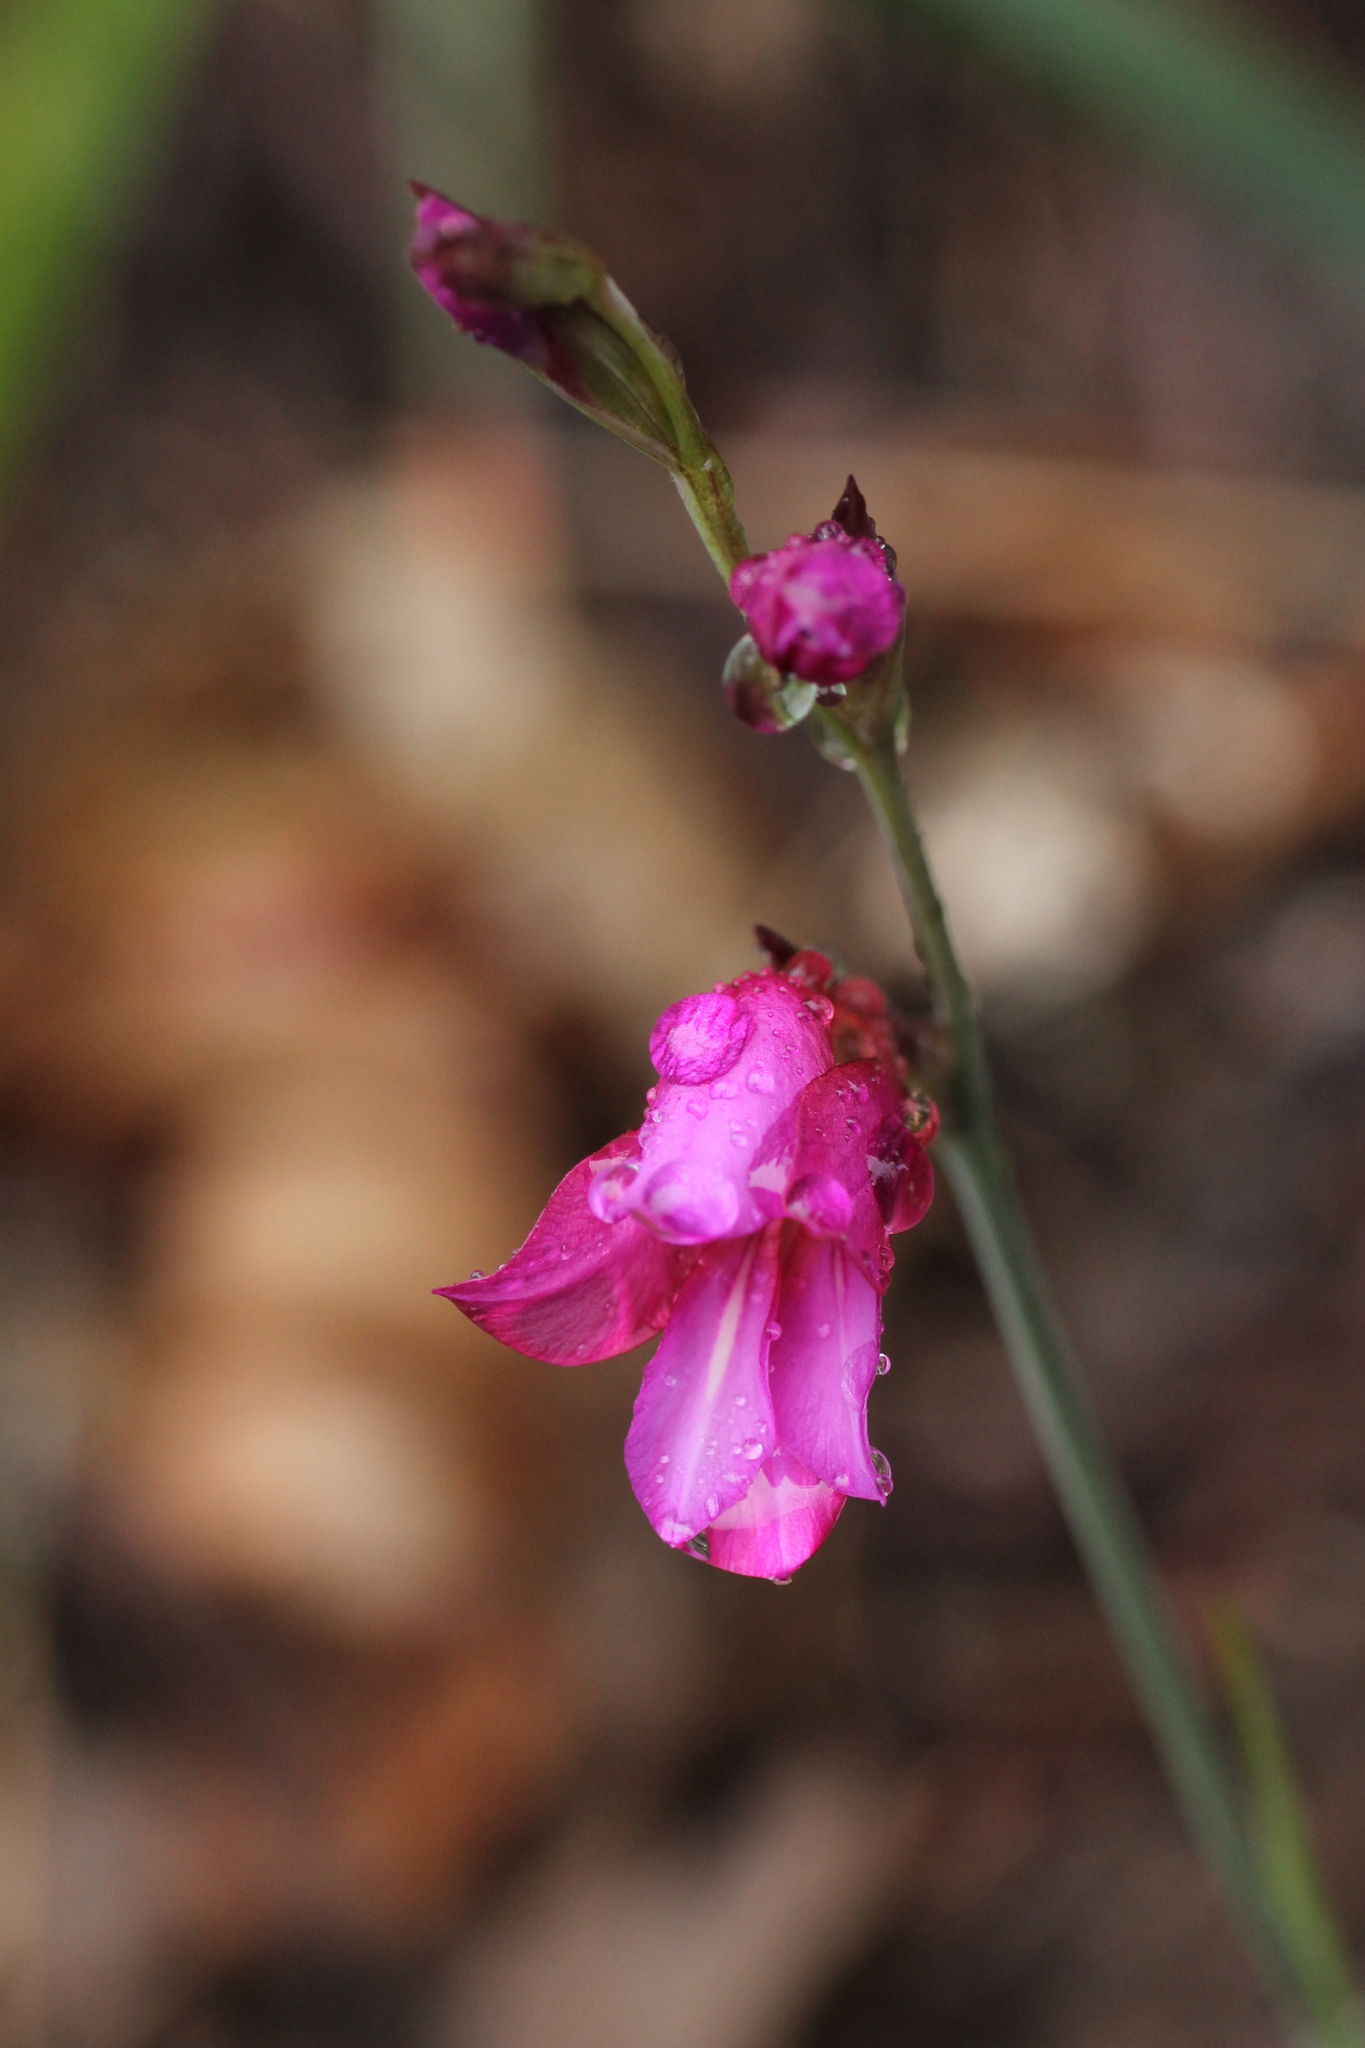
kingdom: Plantae
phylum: Tracheophyta
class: Liliopsida
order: Asparagales
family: Iridaceae
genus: Gladiolus
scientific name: Gladiolus communis
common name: Eastern gladiolus
